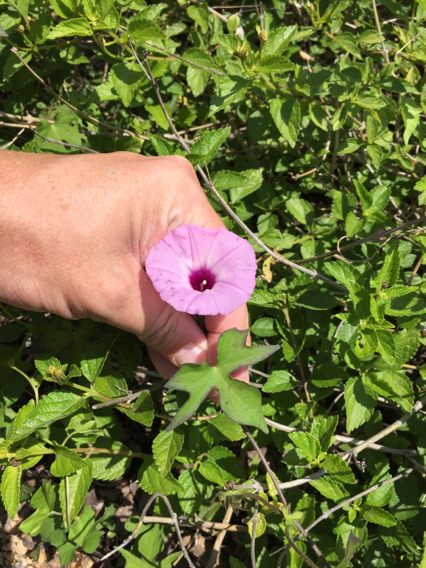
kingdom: Plantae
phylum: Tracheophyta
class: Magnoliopsida
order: Solanales
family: Convolvulaceae
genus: Ipomoea
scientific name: Ipomoea cordatotriloba
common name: Cotton morning glory
